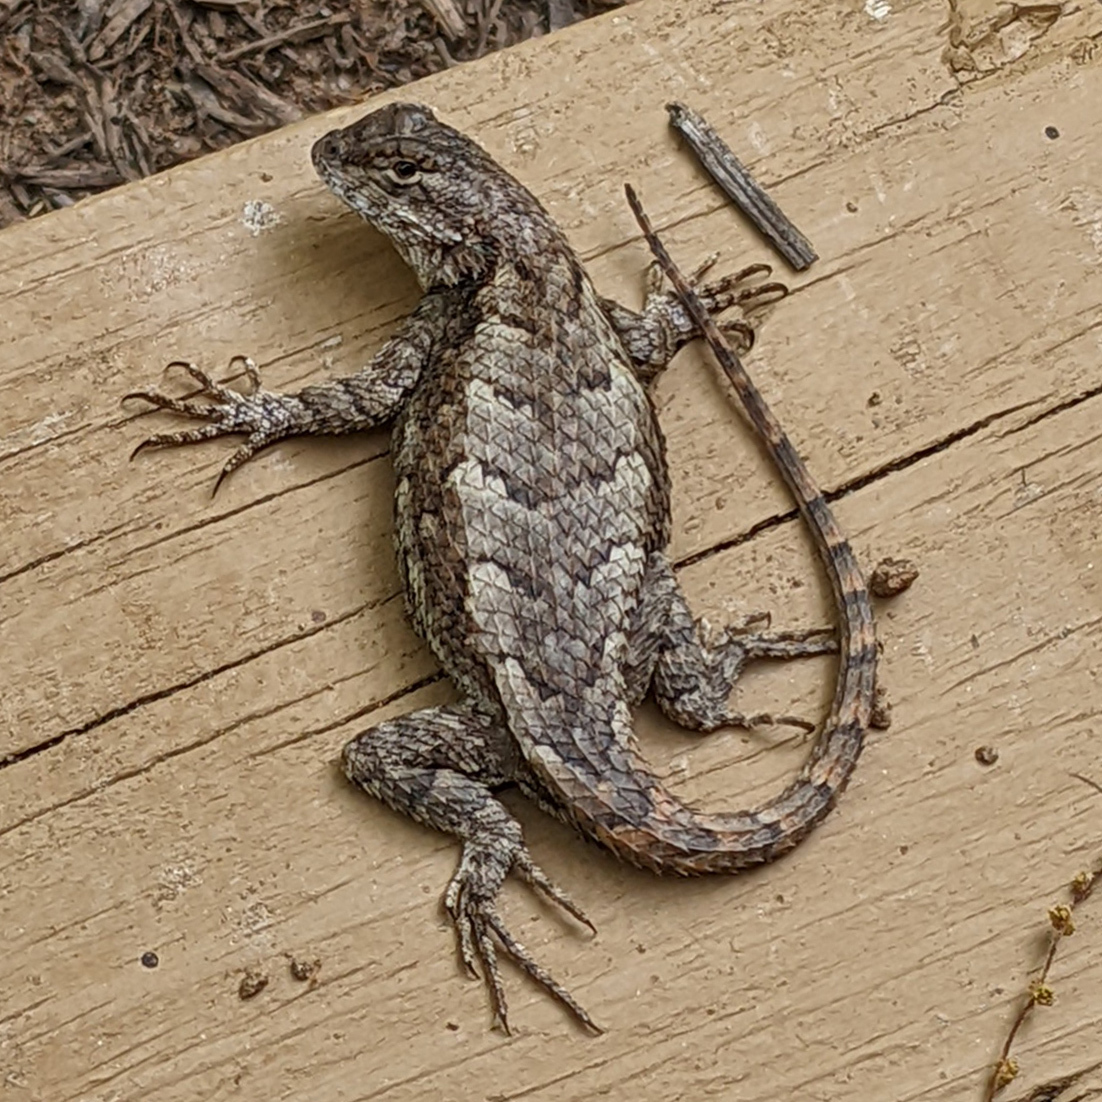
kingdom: Animalia
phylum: Chordata
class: Squamata
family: Phrynosomatidae
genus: Sceloporus
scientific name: Sceloporus undulatus
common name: Eastern fence lizard
